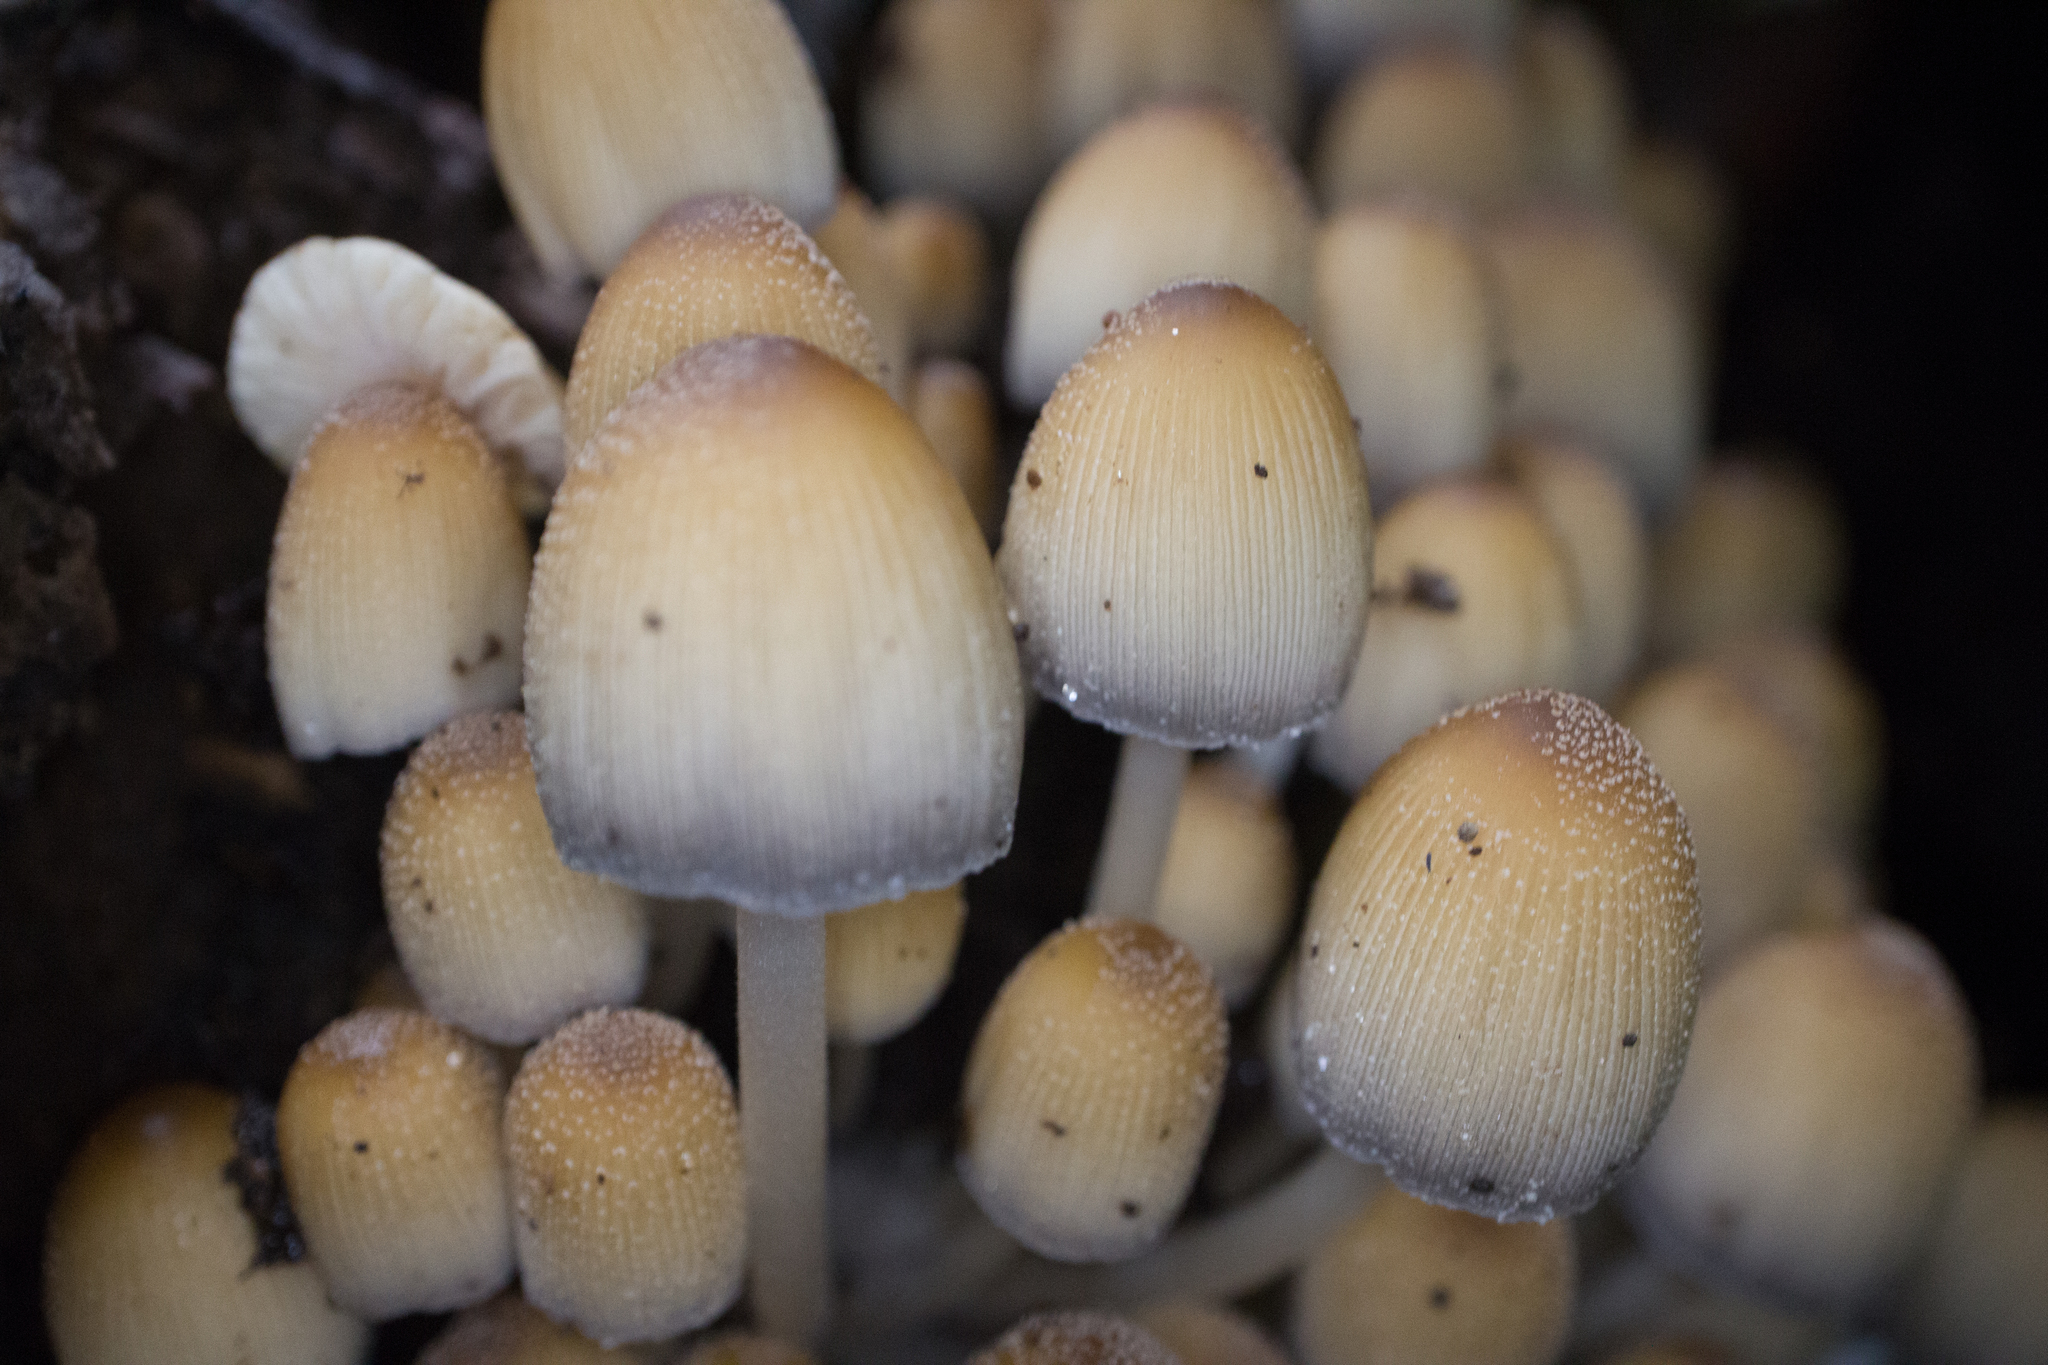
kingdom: Fungi
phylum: Basidiomycota
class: Agaricomycetes
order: Agaricales
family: Psathyrellaceae
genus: Coprinellus
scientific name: Coprinellus micaceus
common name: Glistening ink-cap
